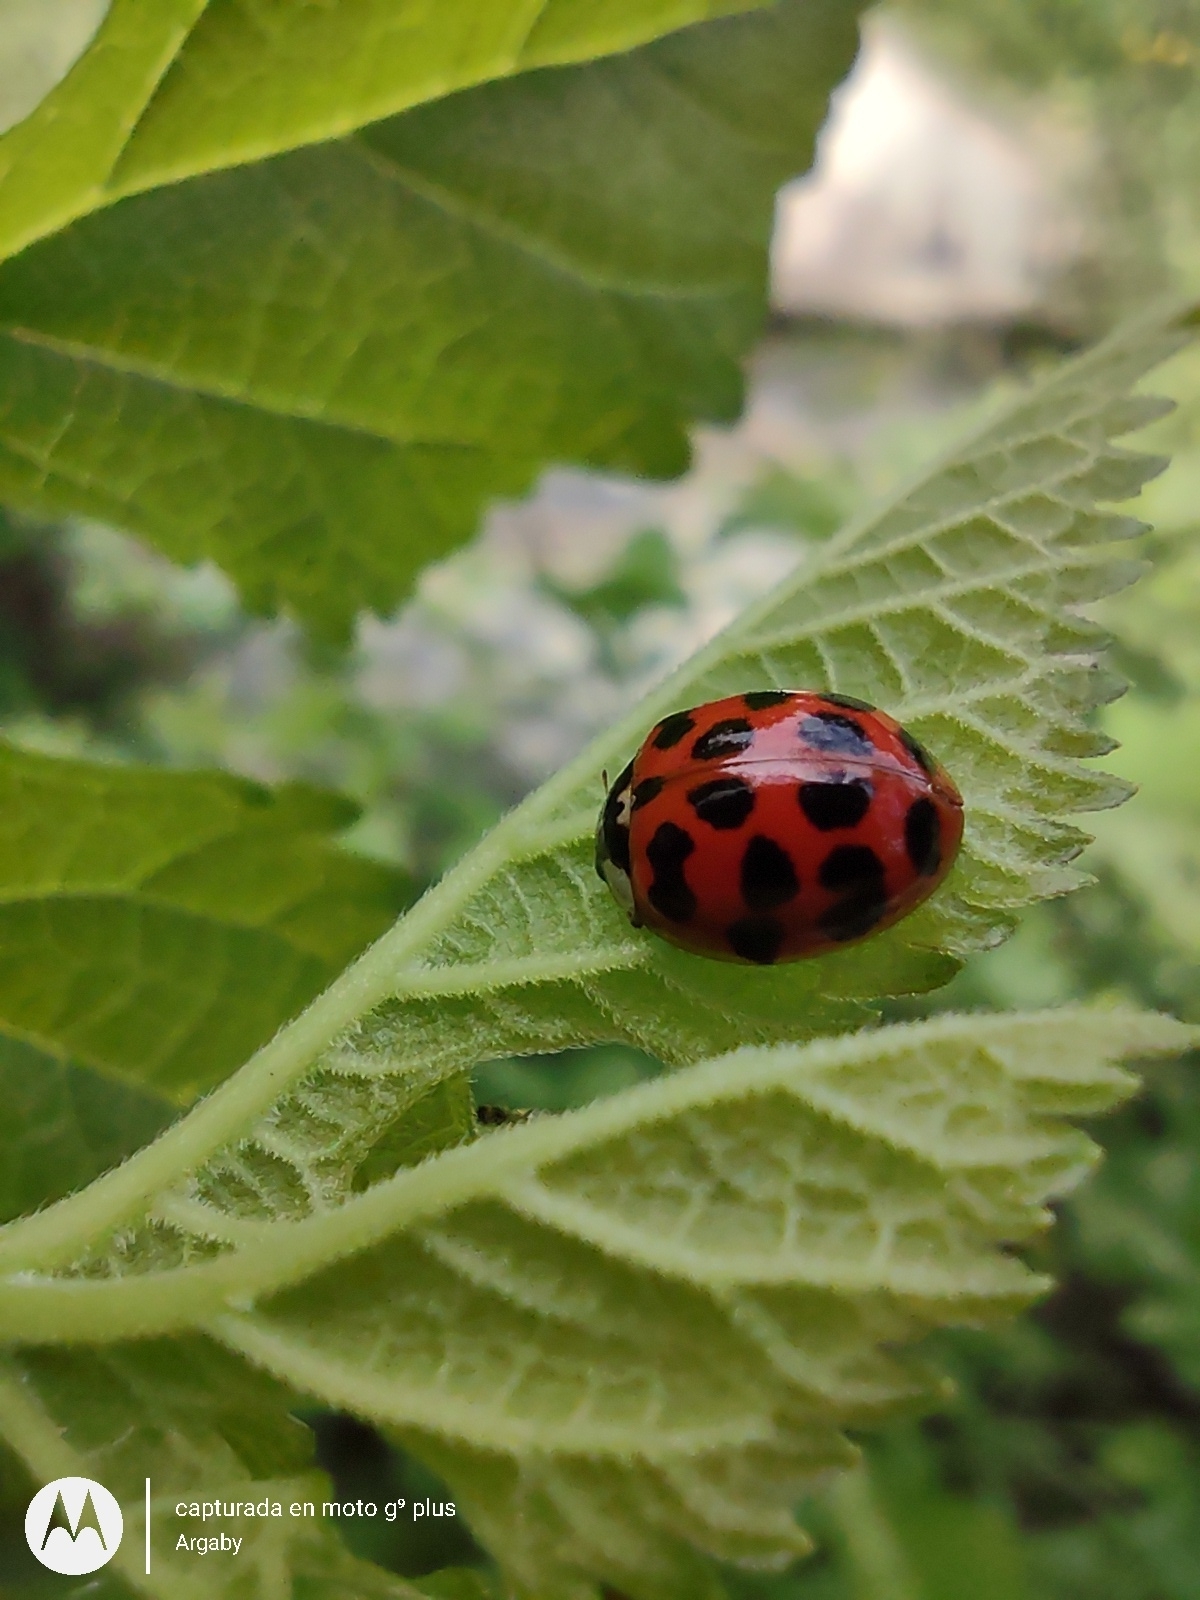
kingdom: Animalia
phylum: Arthropoda
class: Insecta
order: Coleoptera
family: Coccinellidae
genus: Harmonia
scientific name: Harmonia axyridis
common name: Harlequin ladybird
